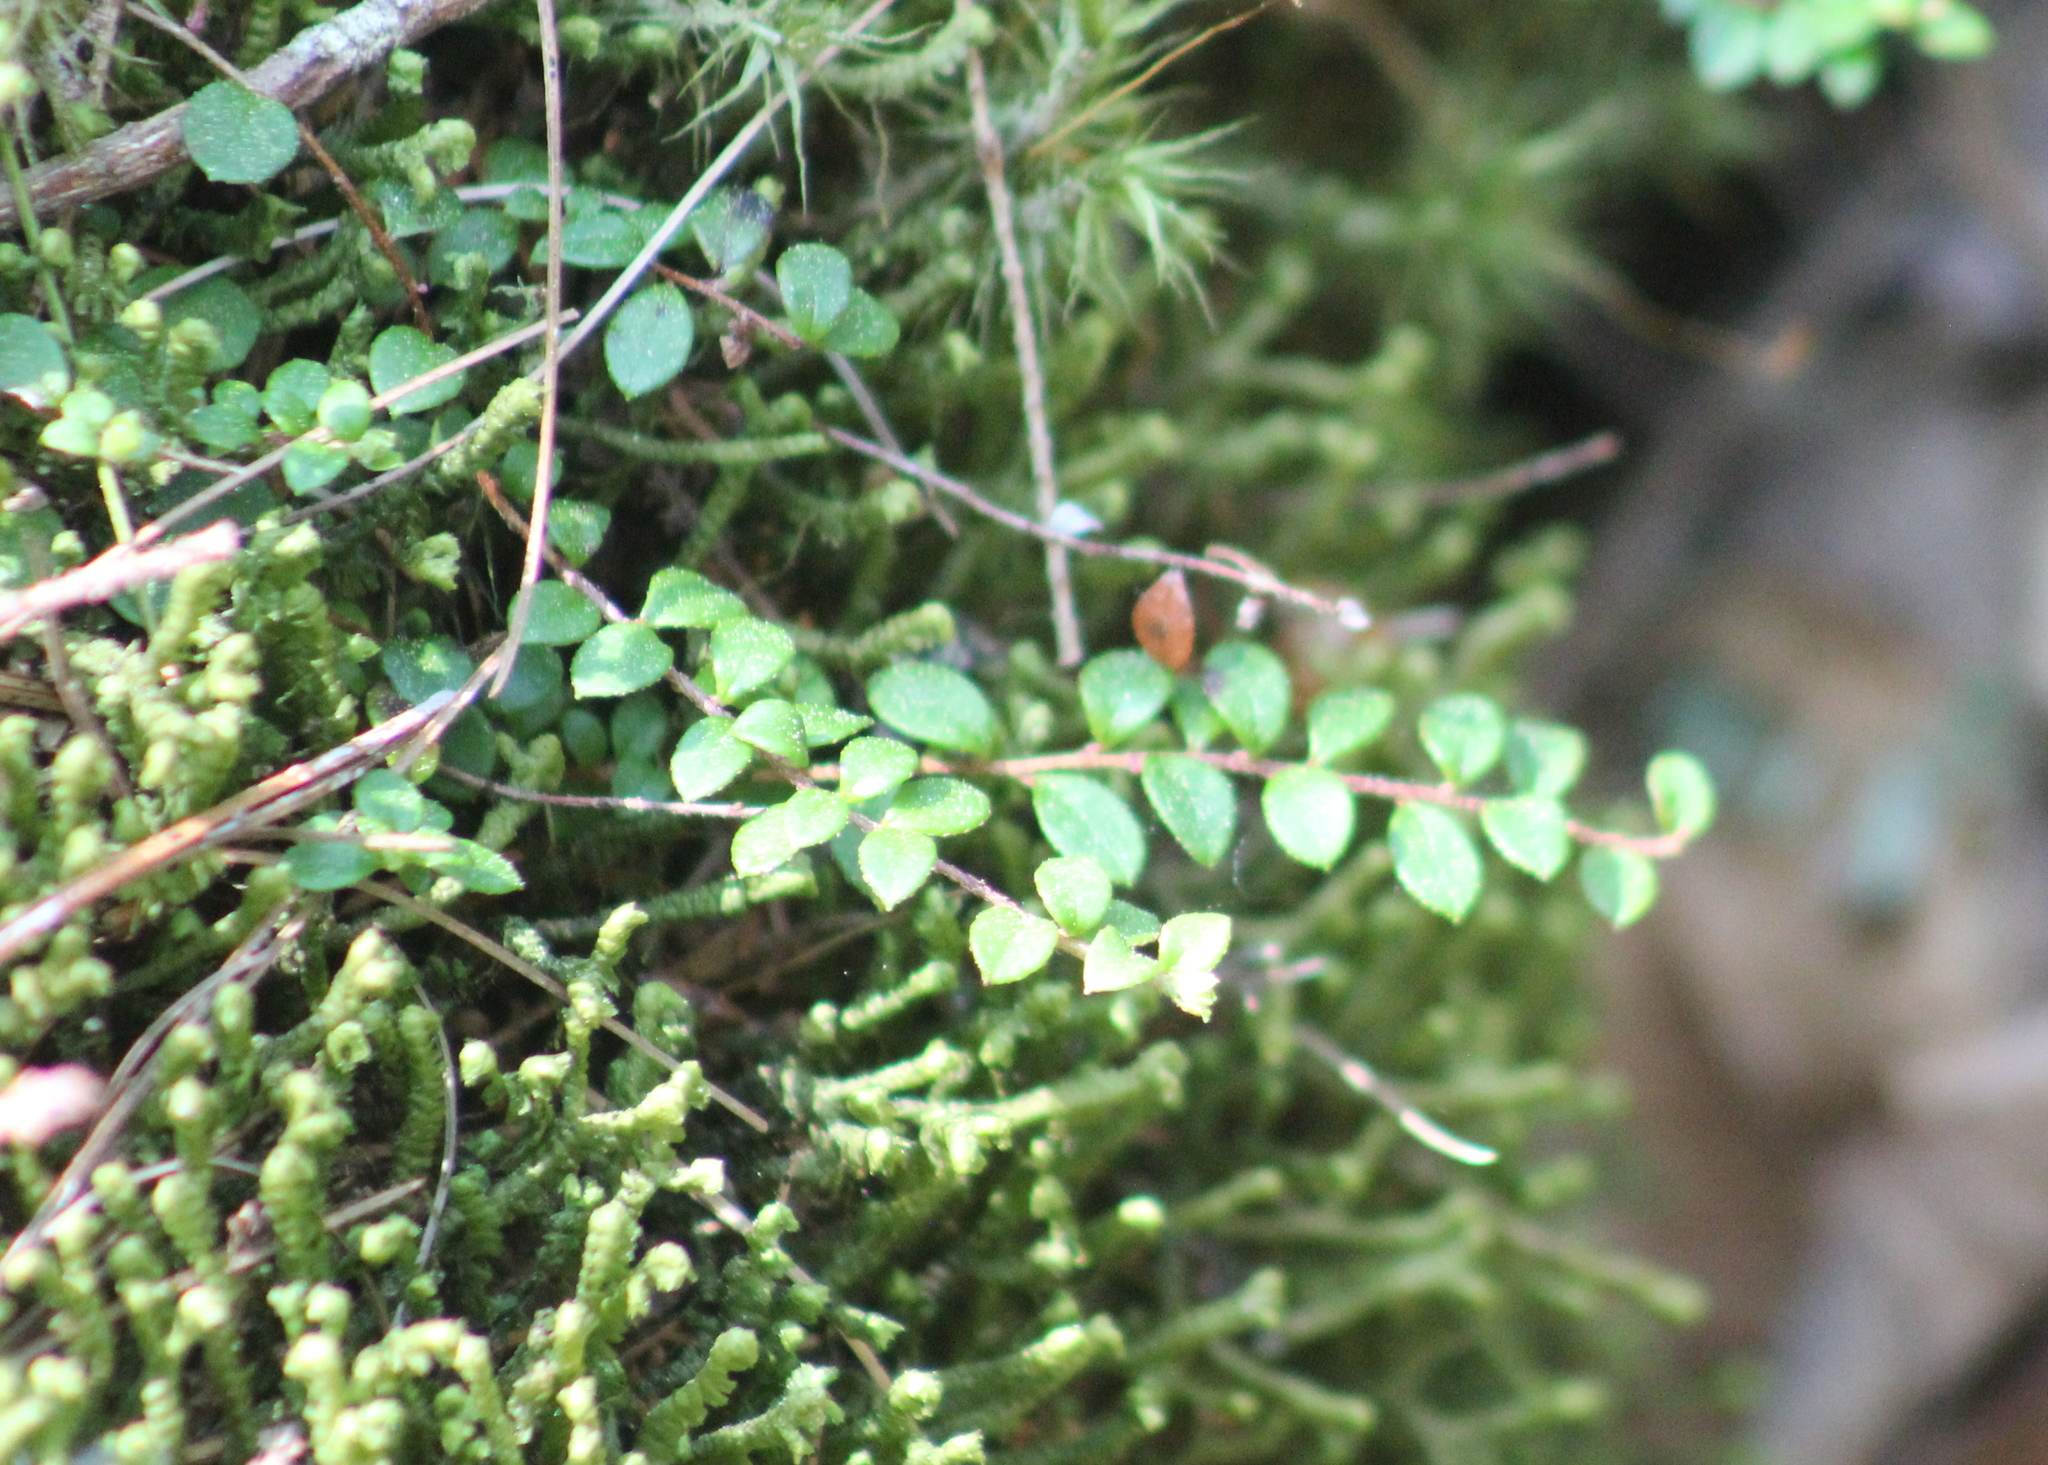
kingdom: Plantae
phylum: Tracheophyta
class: Magnoliopsida
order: Ericales
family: Ericaceae
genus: Gaultheria
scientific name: Gaultheria hispidula
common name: Cancer wintergreen
